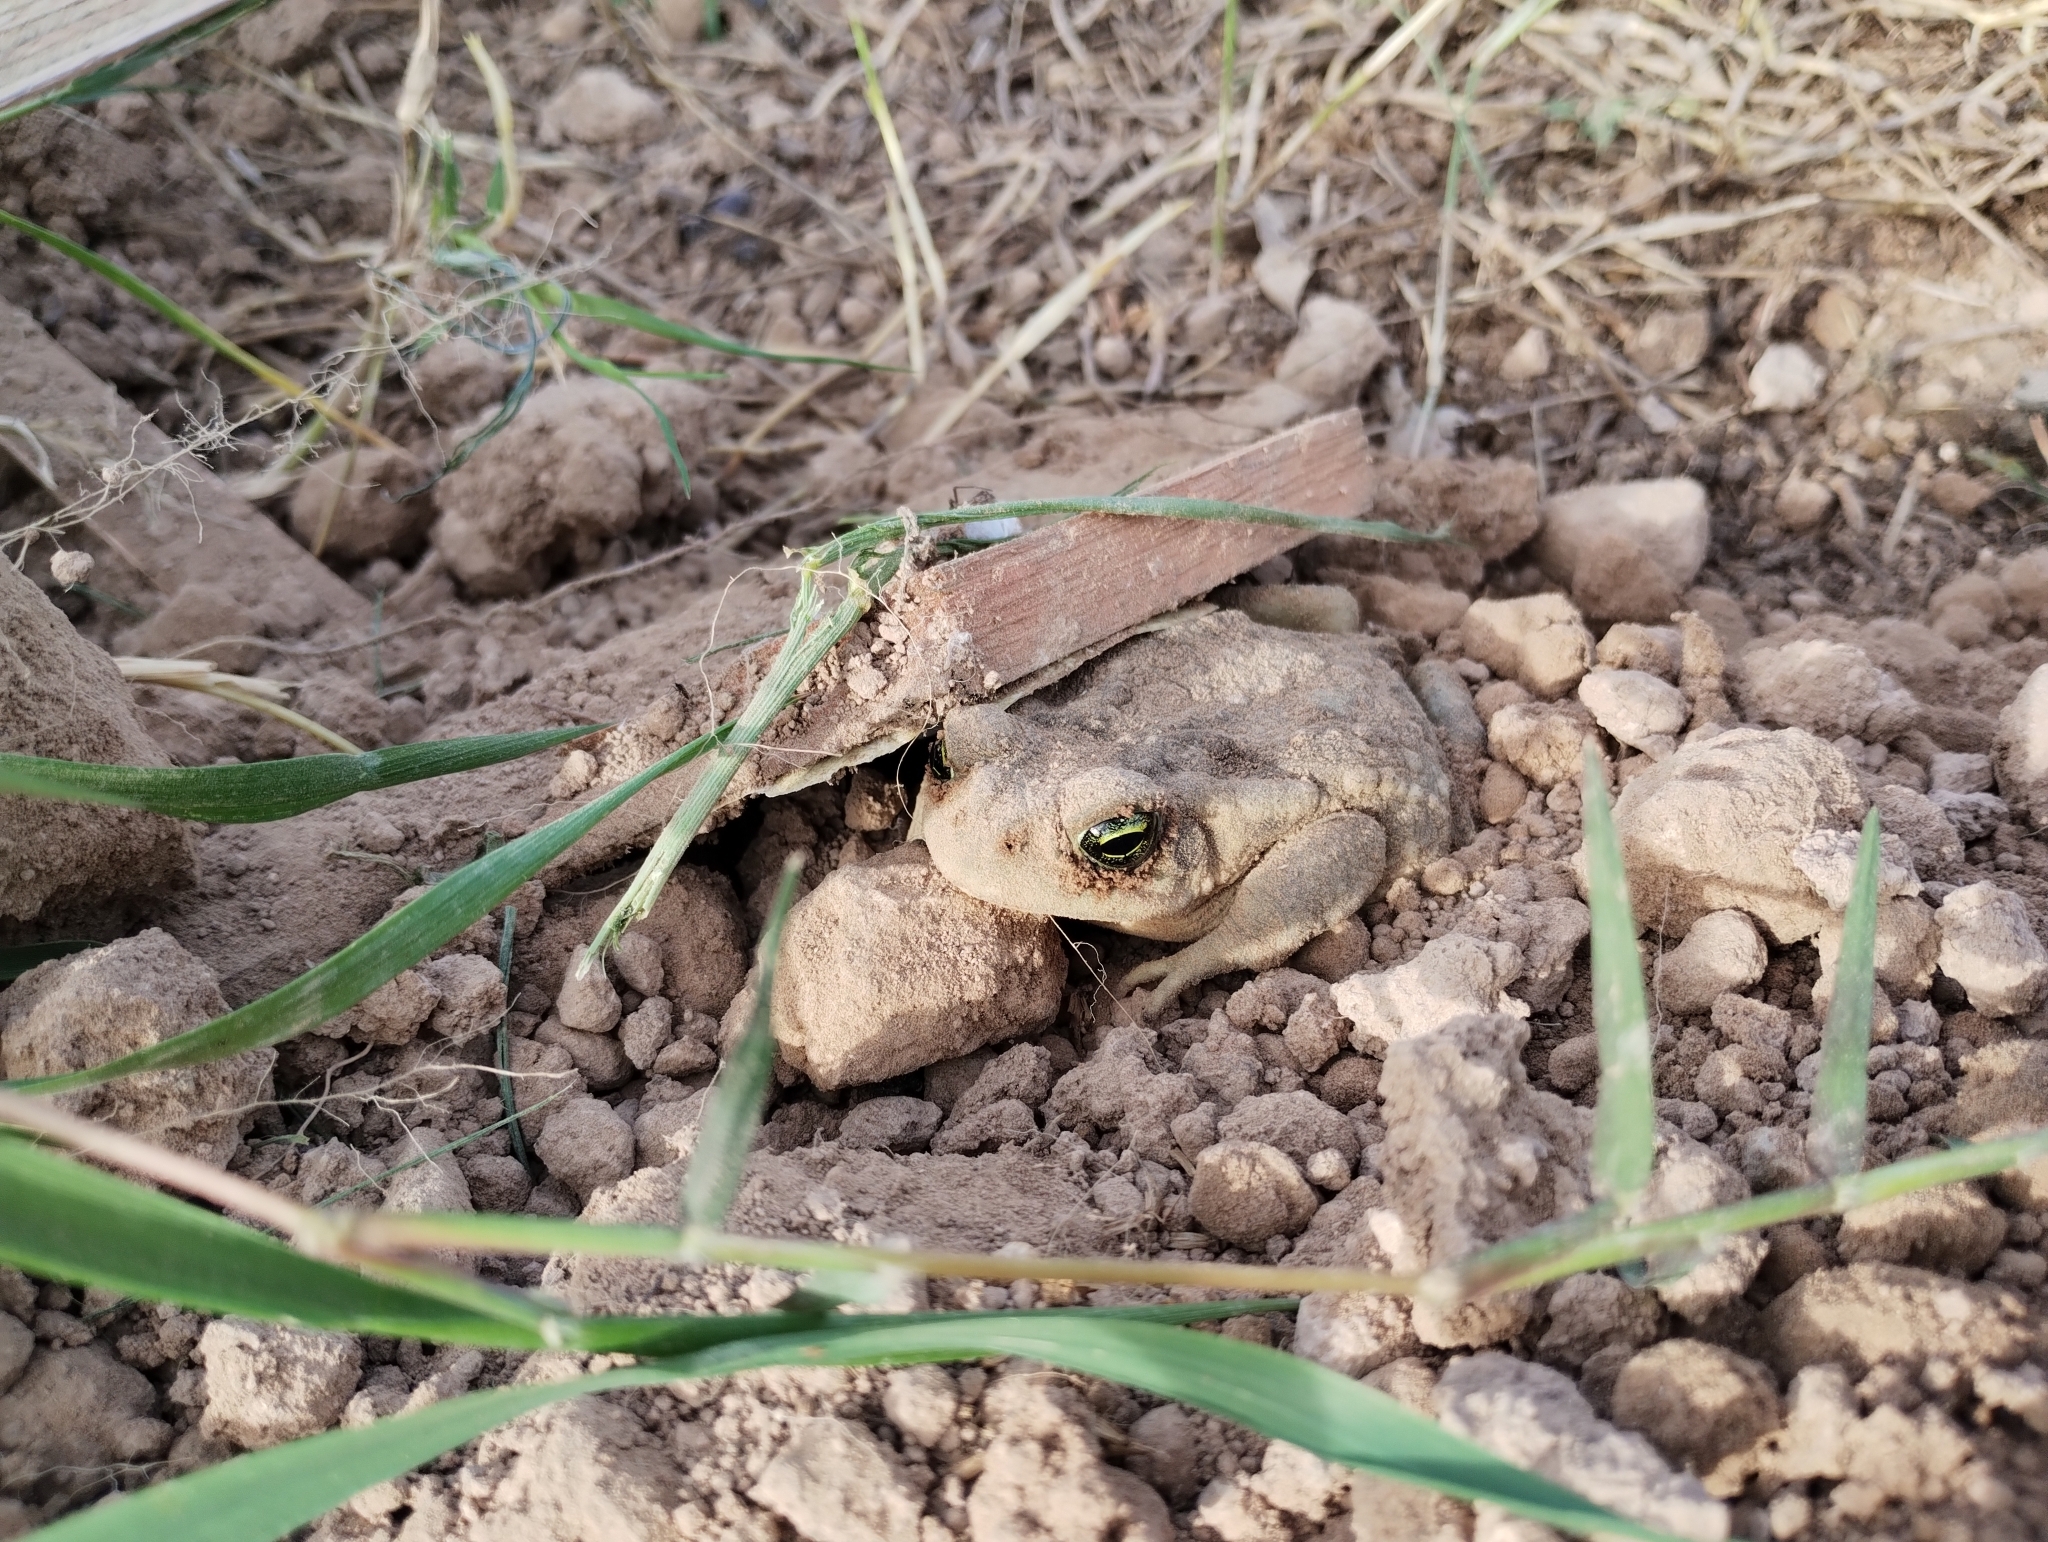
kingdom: Animalia
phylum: Chordata
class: Amphibia
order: Anura
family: Bufonidae
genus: Rhinella
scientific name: Rhinella arenarum
